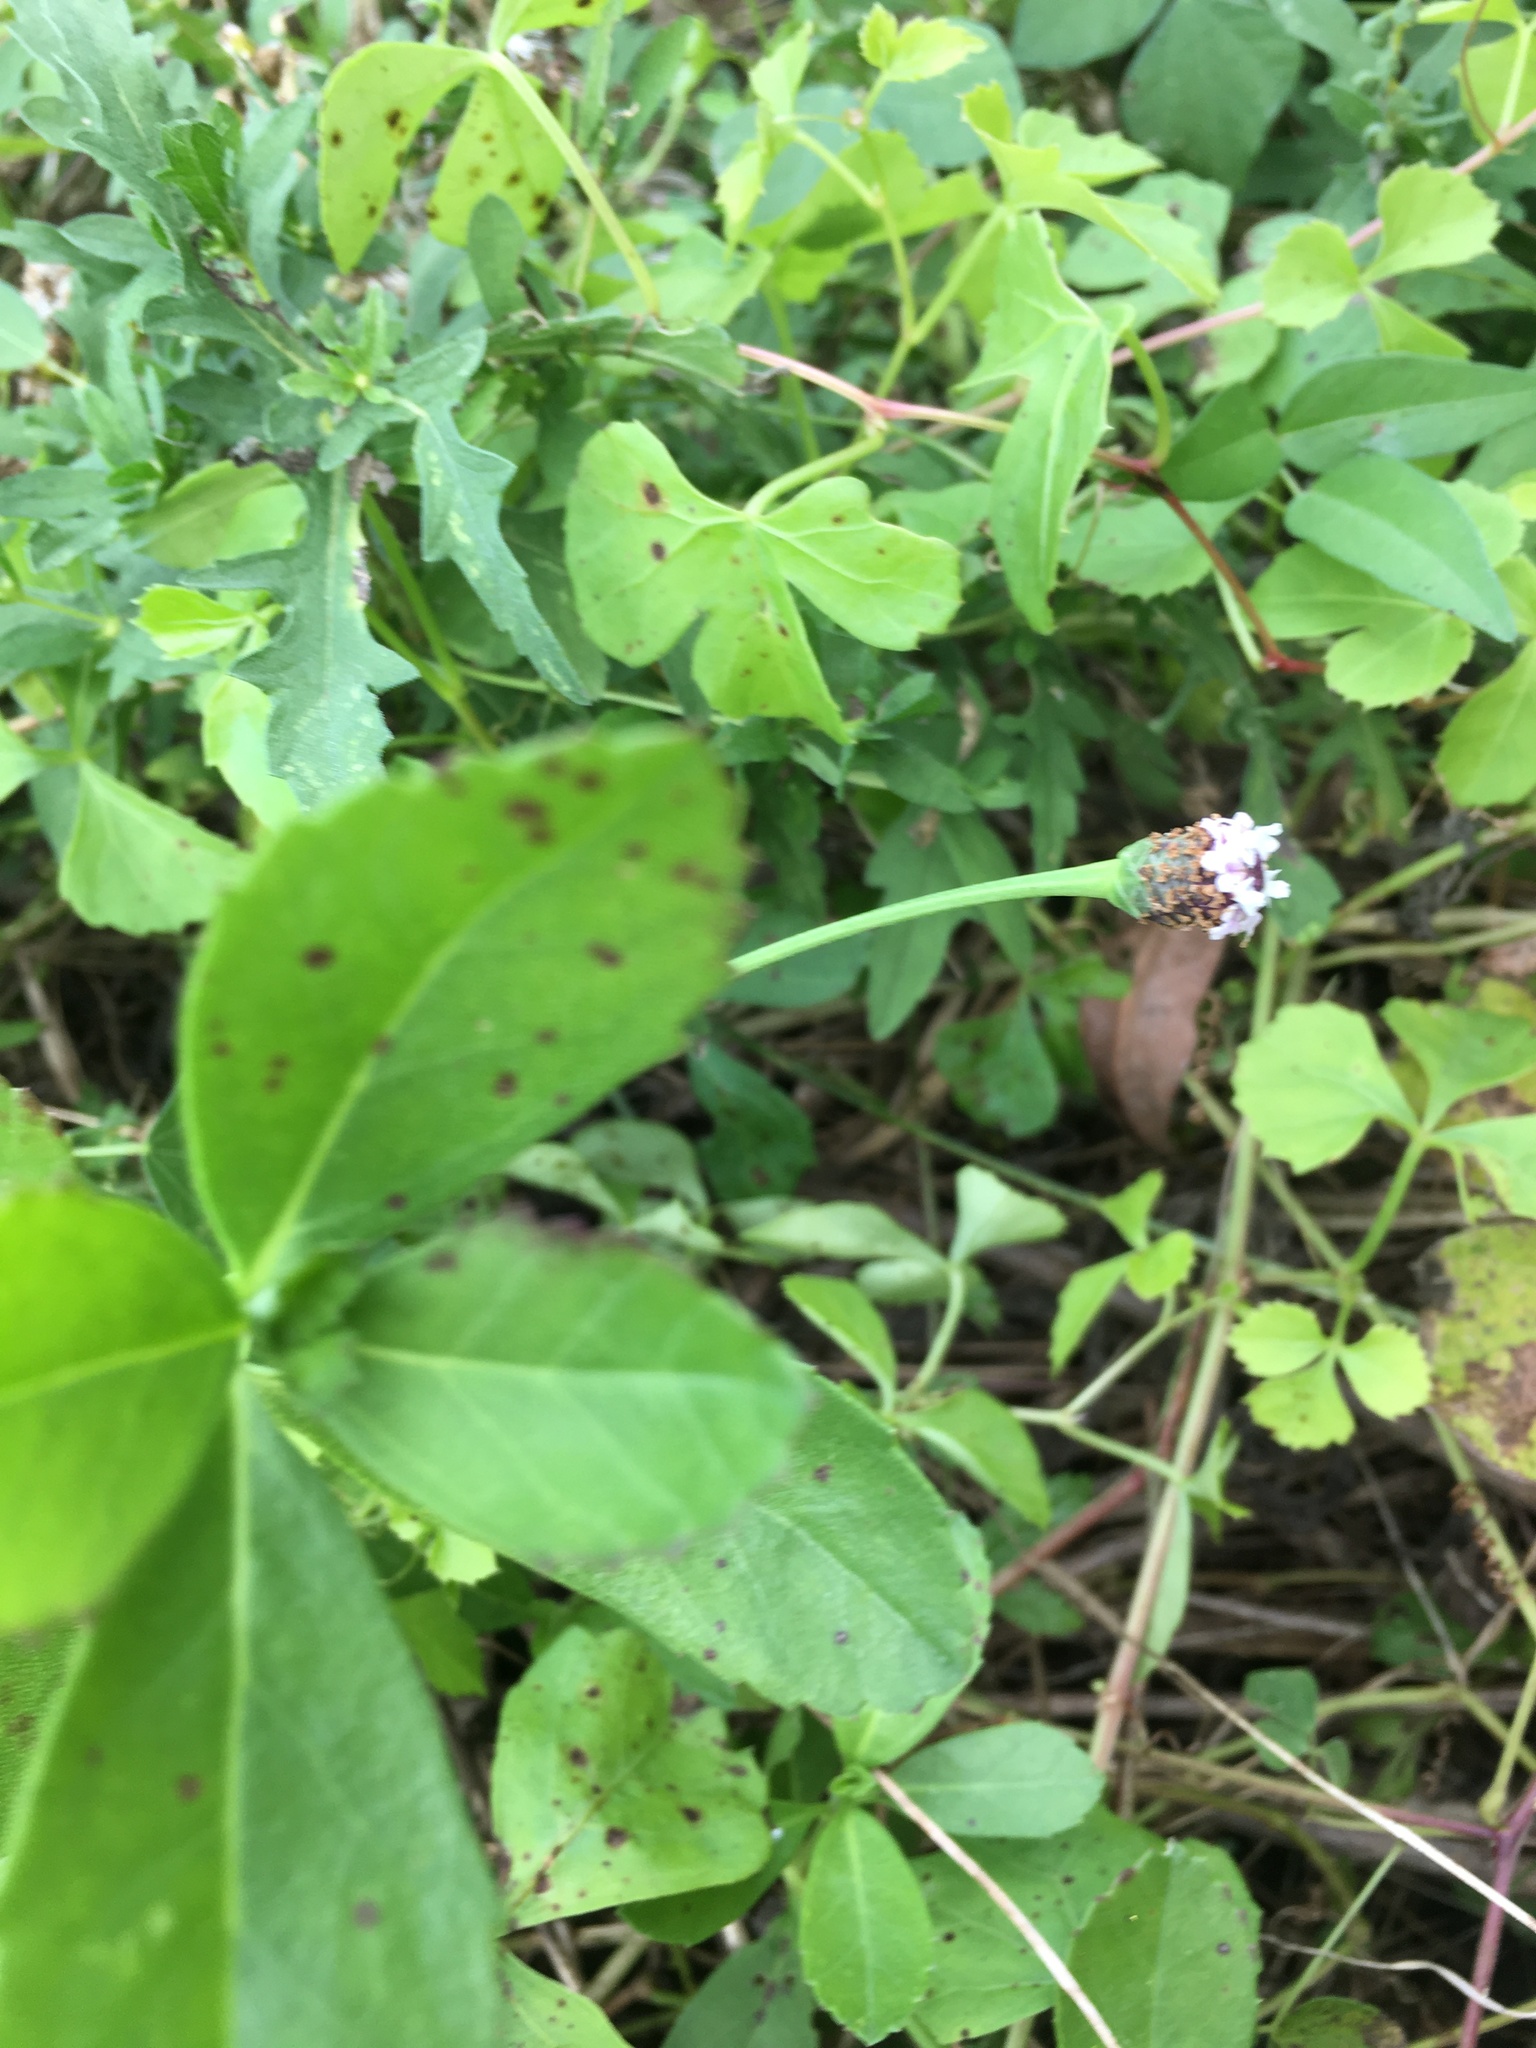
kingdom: Plantae
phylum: Tracheophyta
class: Magnoliopsida
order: Lamiales
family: Verbenaceae
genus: Phyla
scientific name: Phyla nodiflora
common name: Frogfruit
